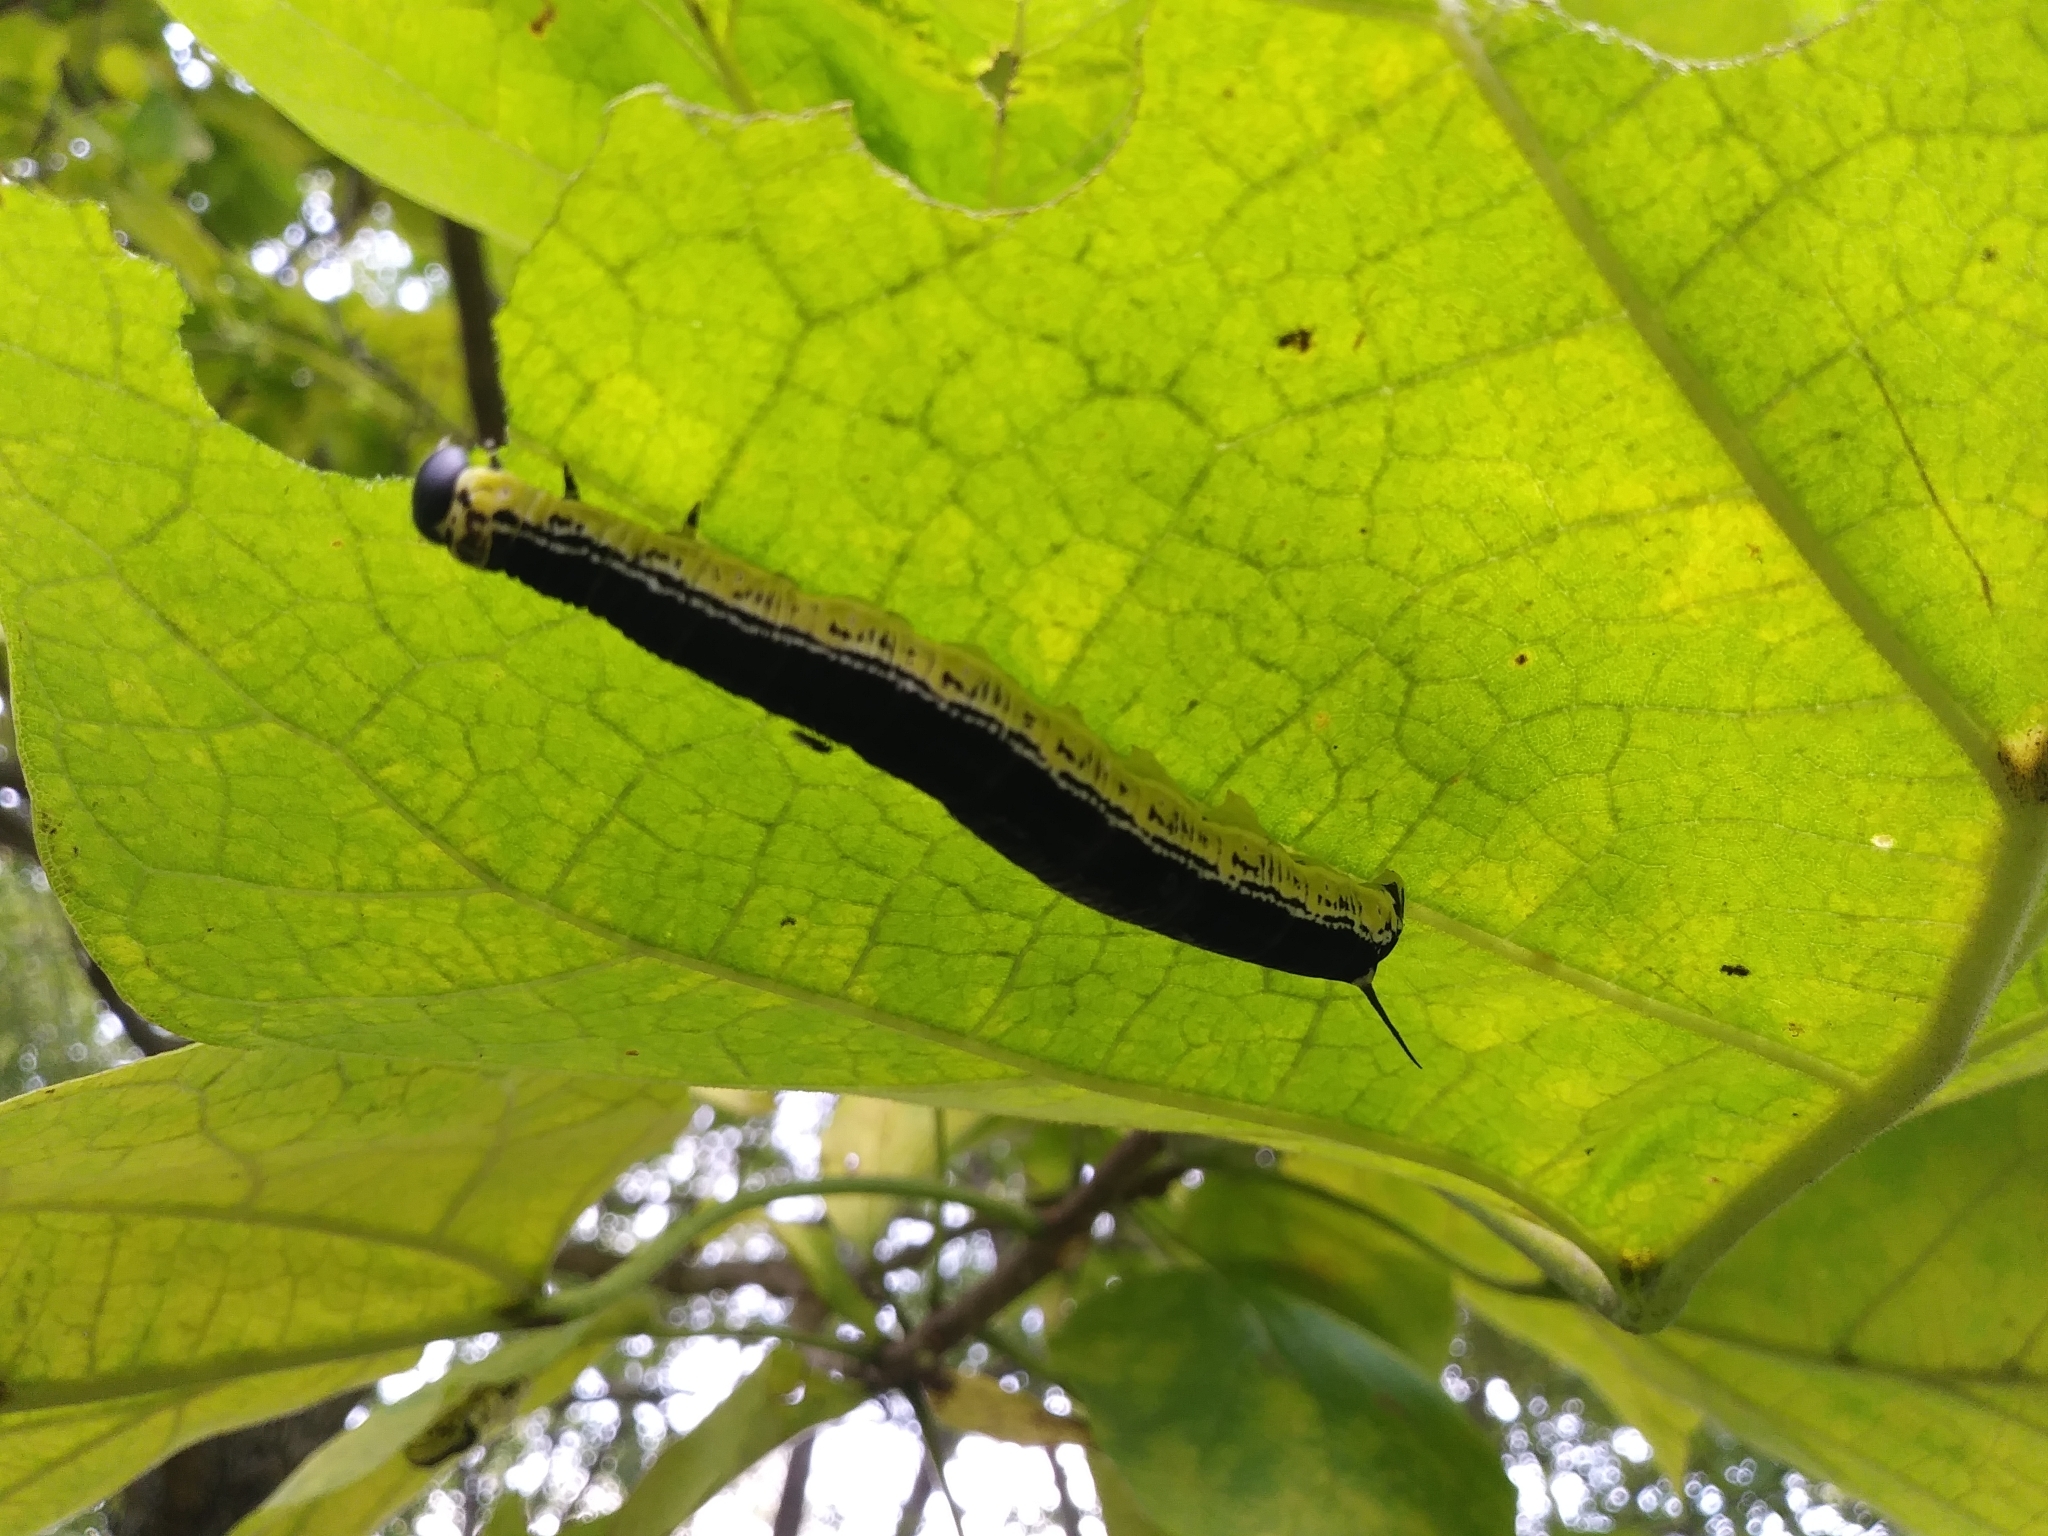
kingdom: Animalia
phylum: Arthropoda
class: Insecta
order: Lepidoptera
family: Sphingidae
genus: Ceratomia
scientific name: Ceratomia catalpae
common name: Catalpa hornworm
